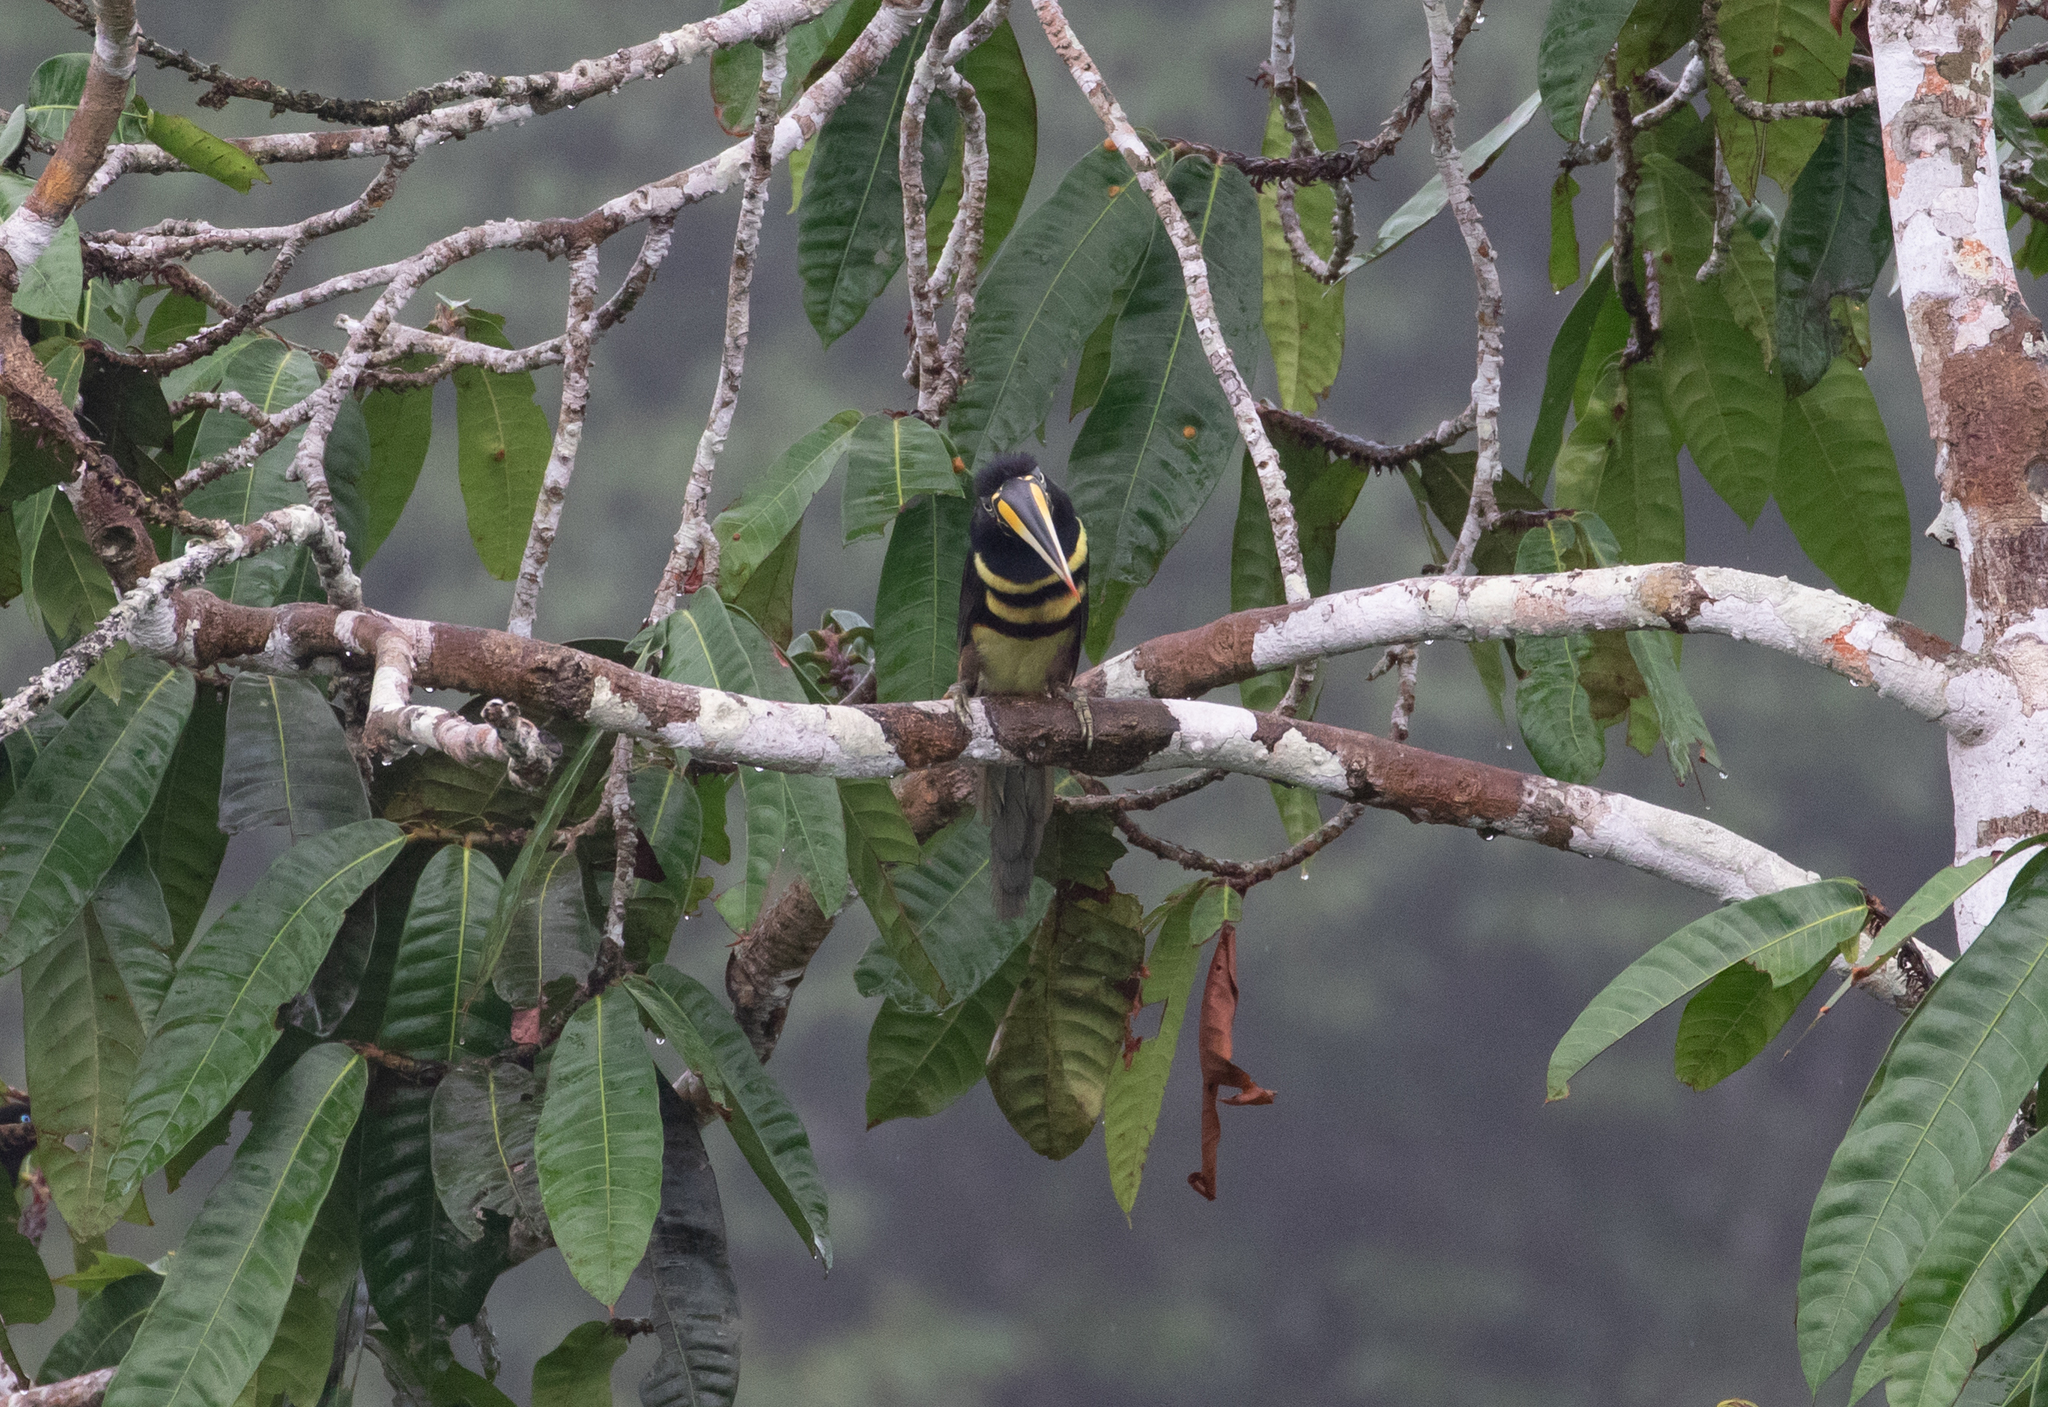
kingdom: Animalia
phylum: Chordata
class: Aves
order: Piciformes
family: Ramphastidae
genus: Pteroglossus
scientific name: Pteroglossus pluricinctus
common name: Many-banded aracari
